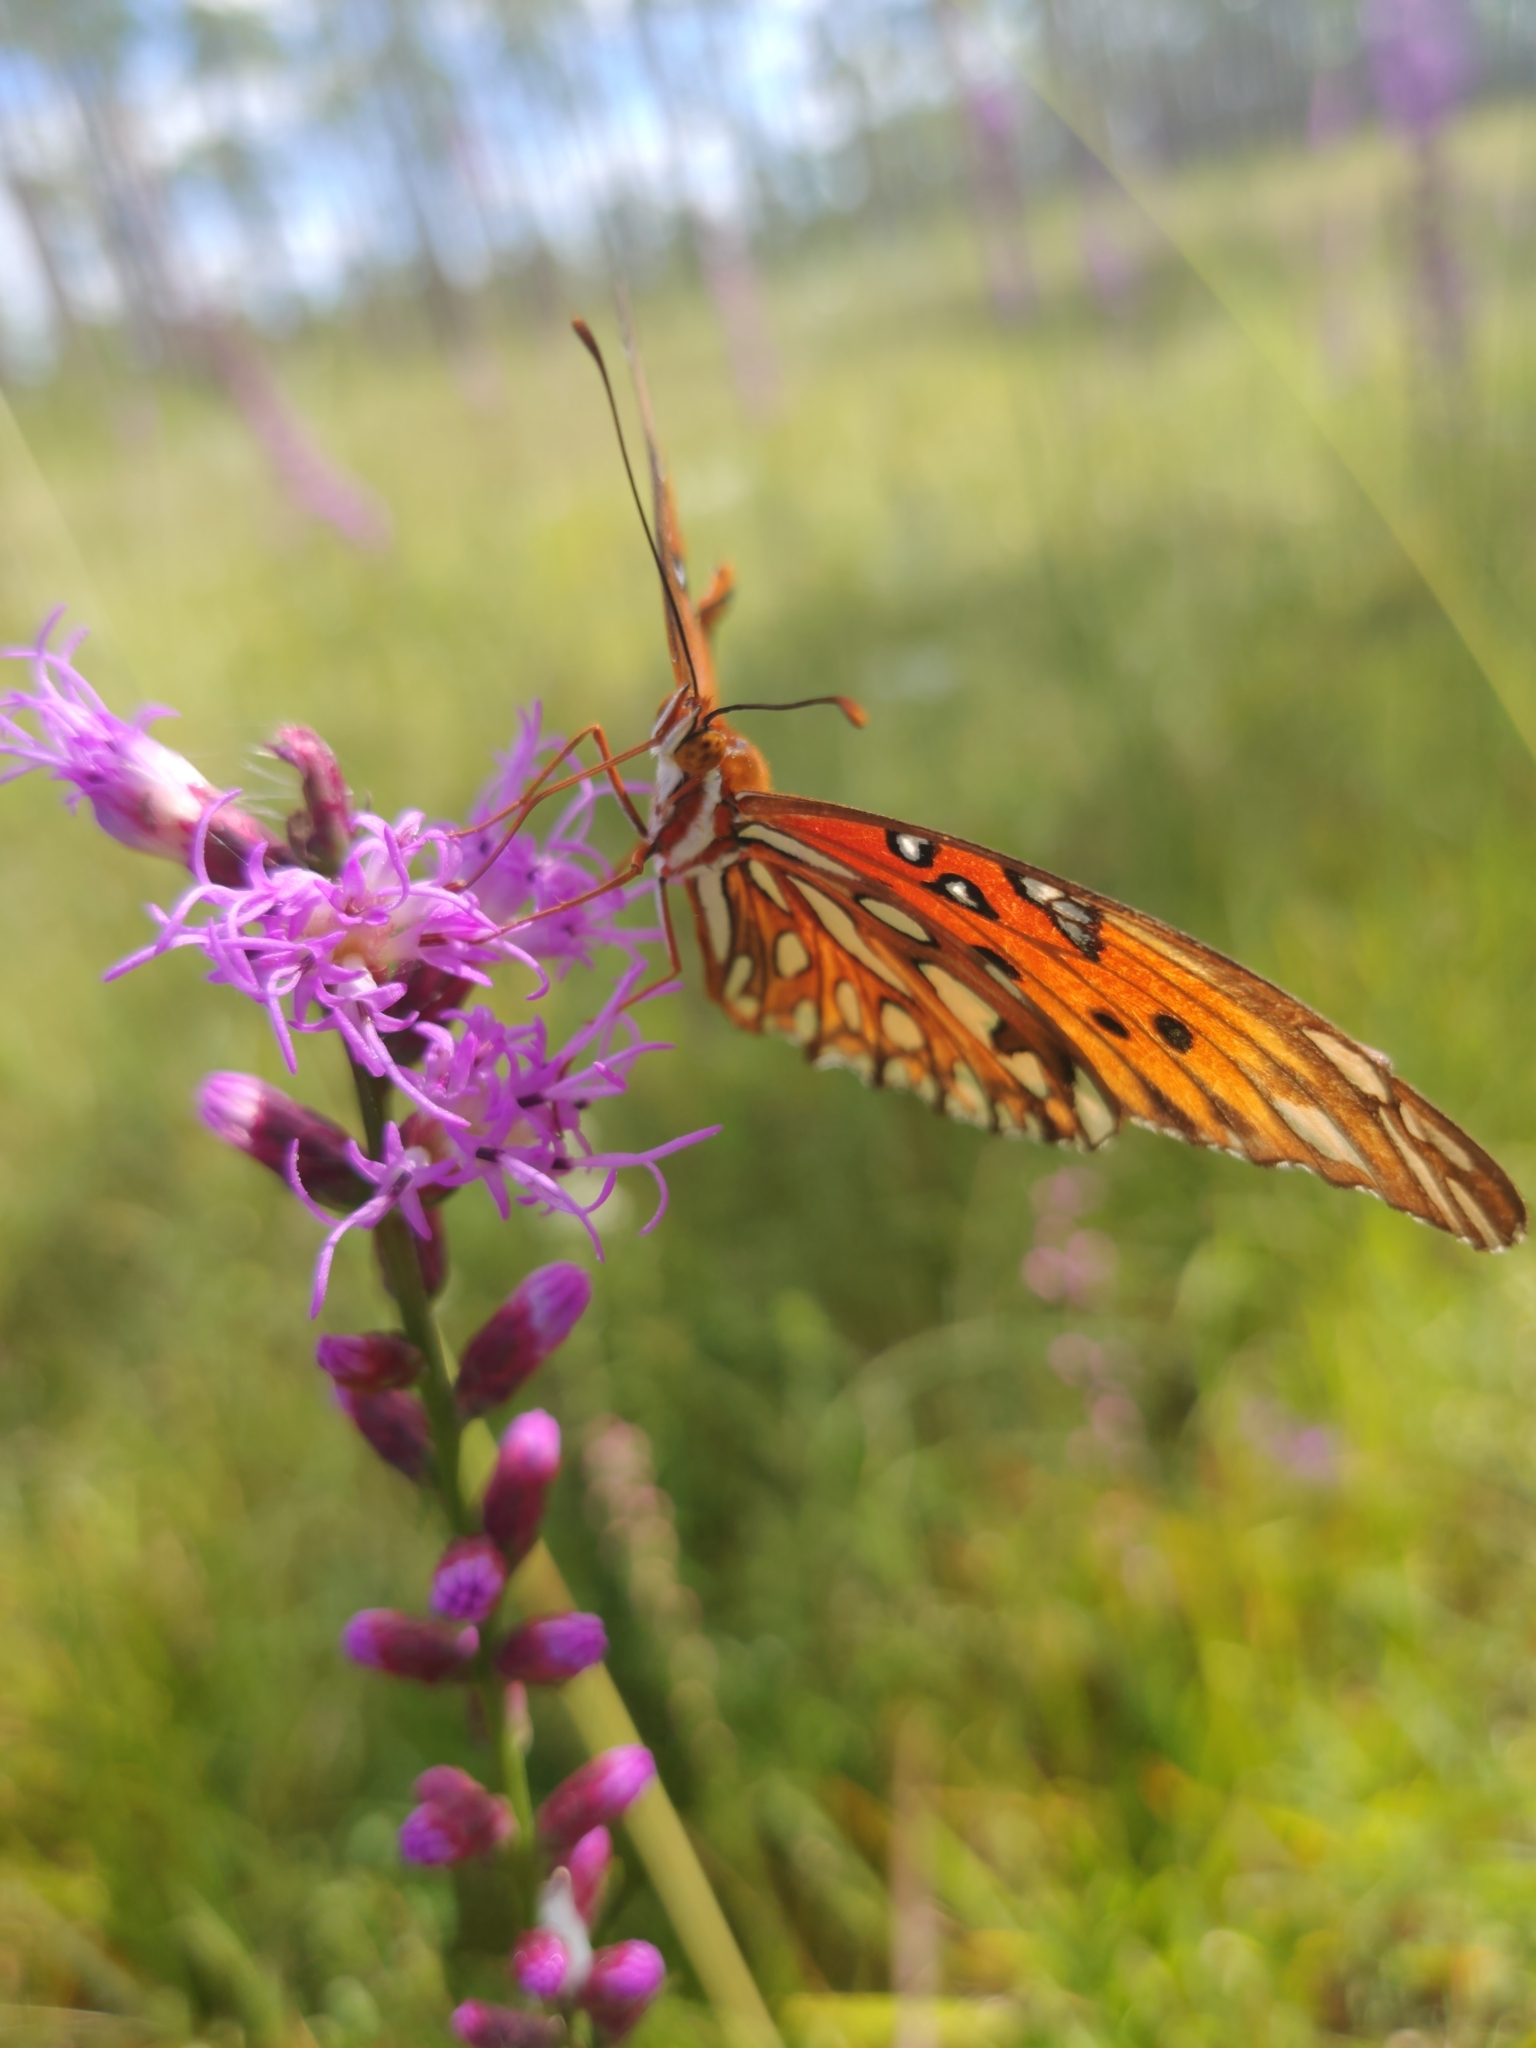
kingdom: Animalia
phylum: Arthropoda
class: Insecta
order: Lepidoptera
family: Nymphalidae
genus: Dione
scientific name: Dione vanillae
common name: Gulf fritillary
